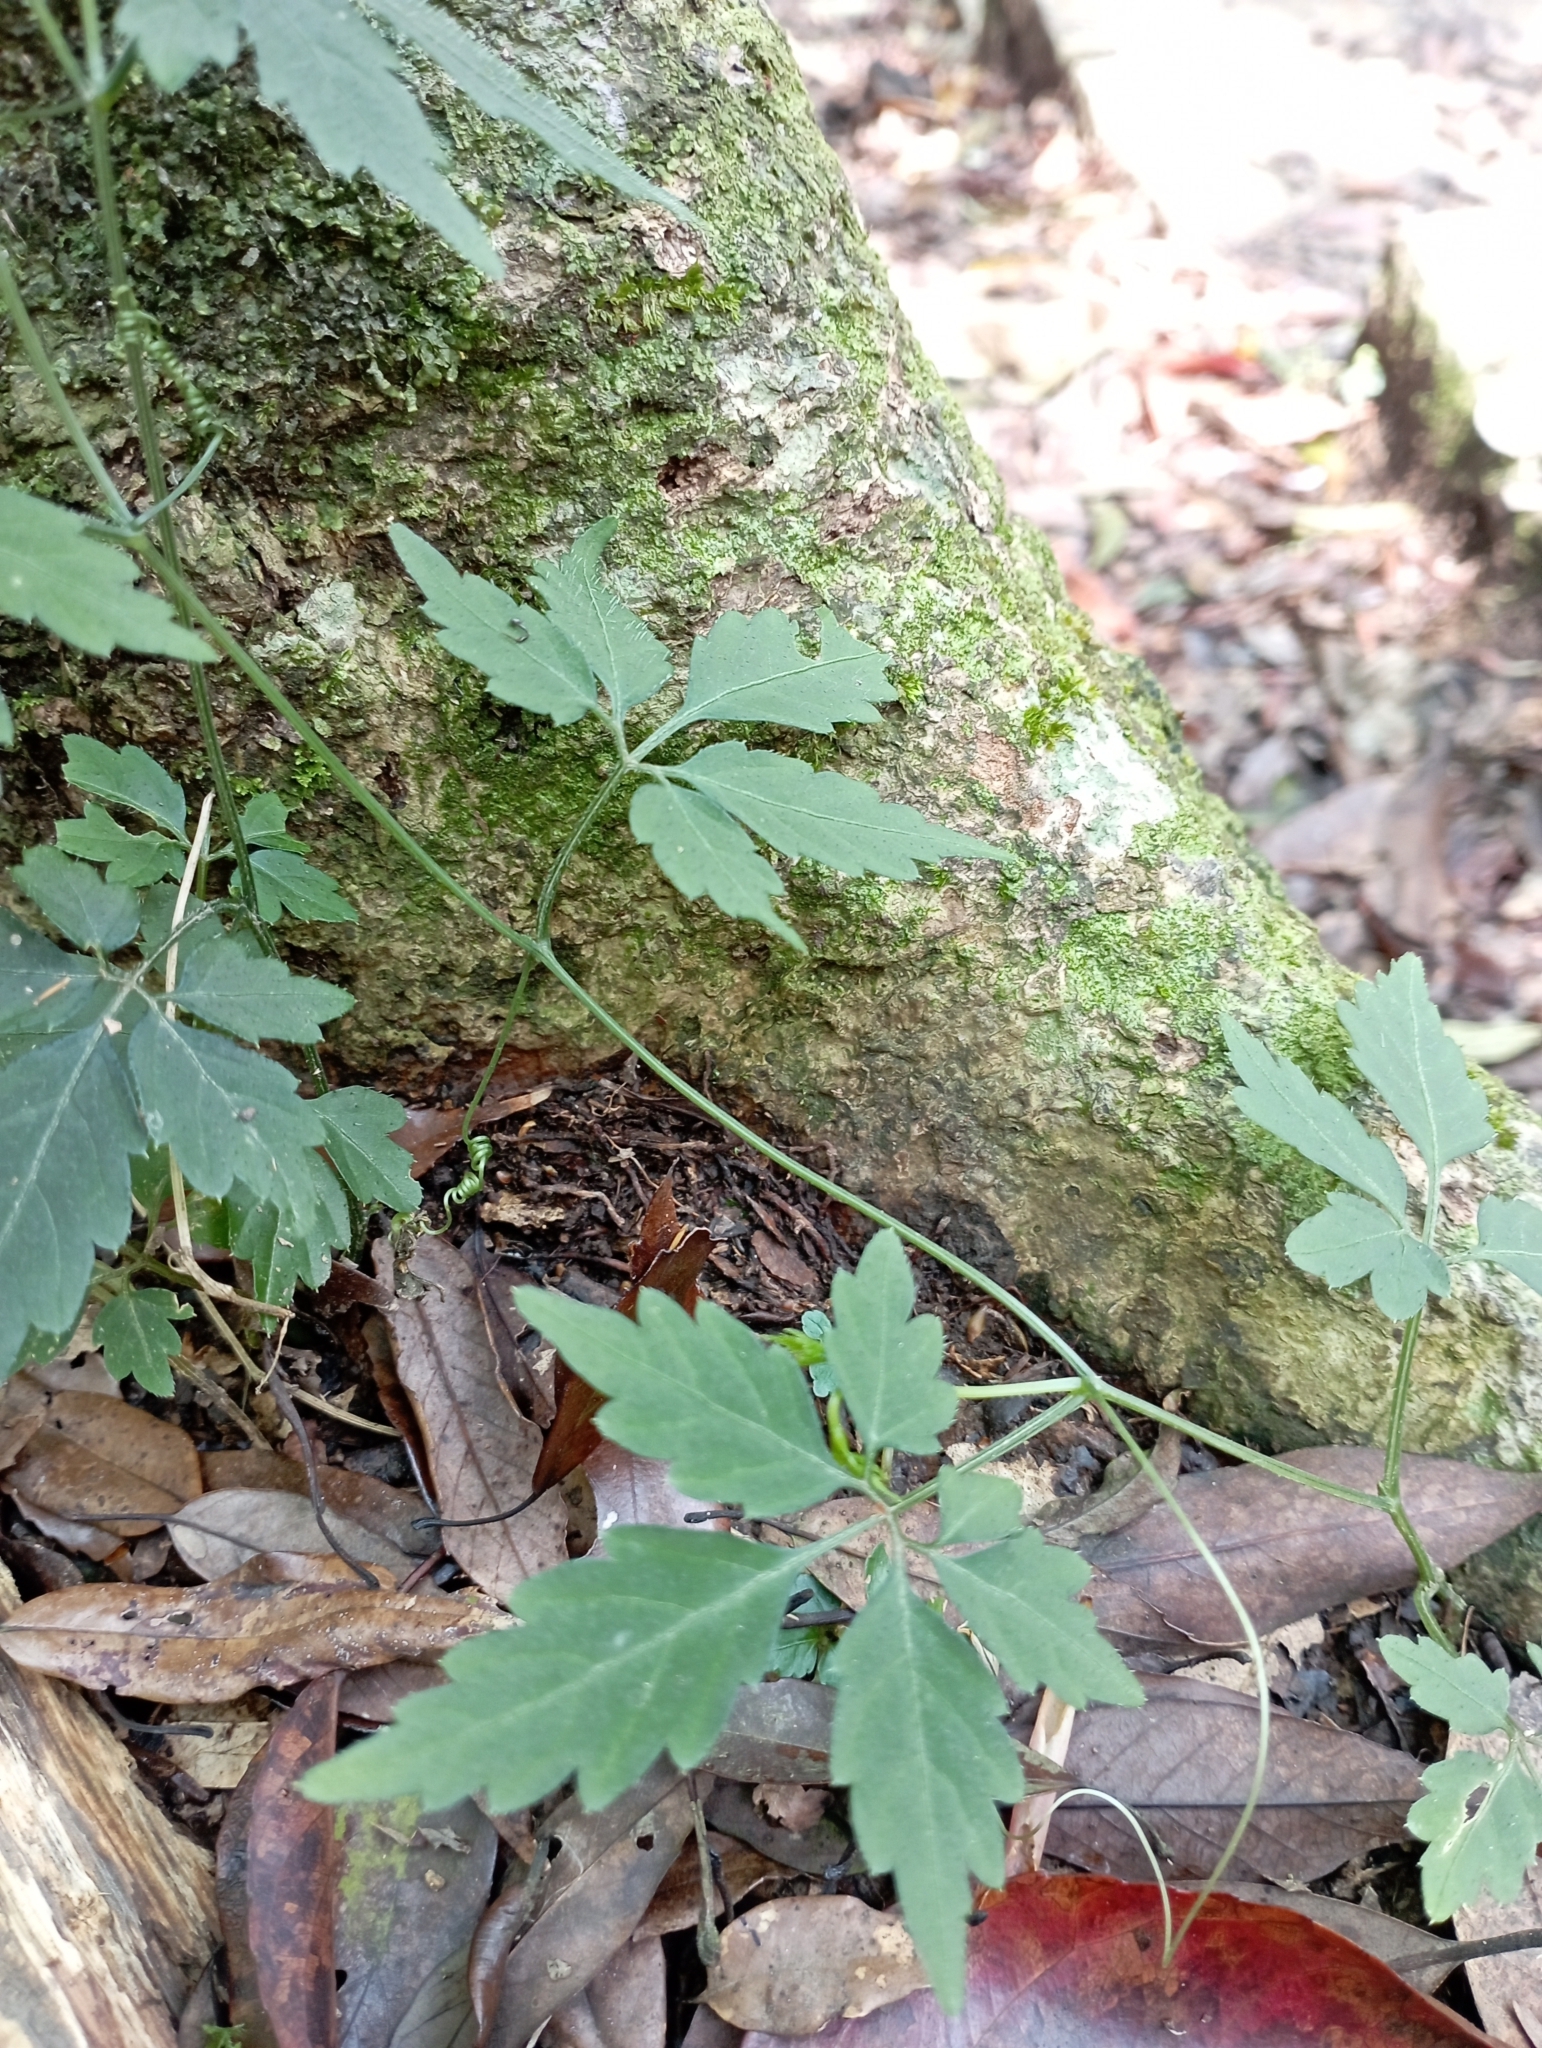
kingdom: Plantae
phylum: Tracheophyta
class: Magnoliopsida
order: Cucurbitales
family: Cucurbitaceae
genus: Gynostemma
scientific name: Gynostemma pentaphyllum
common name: Gynostemma
